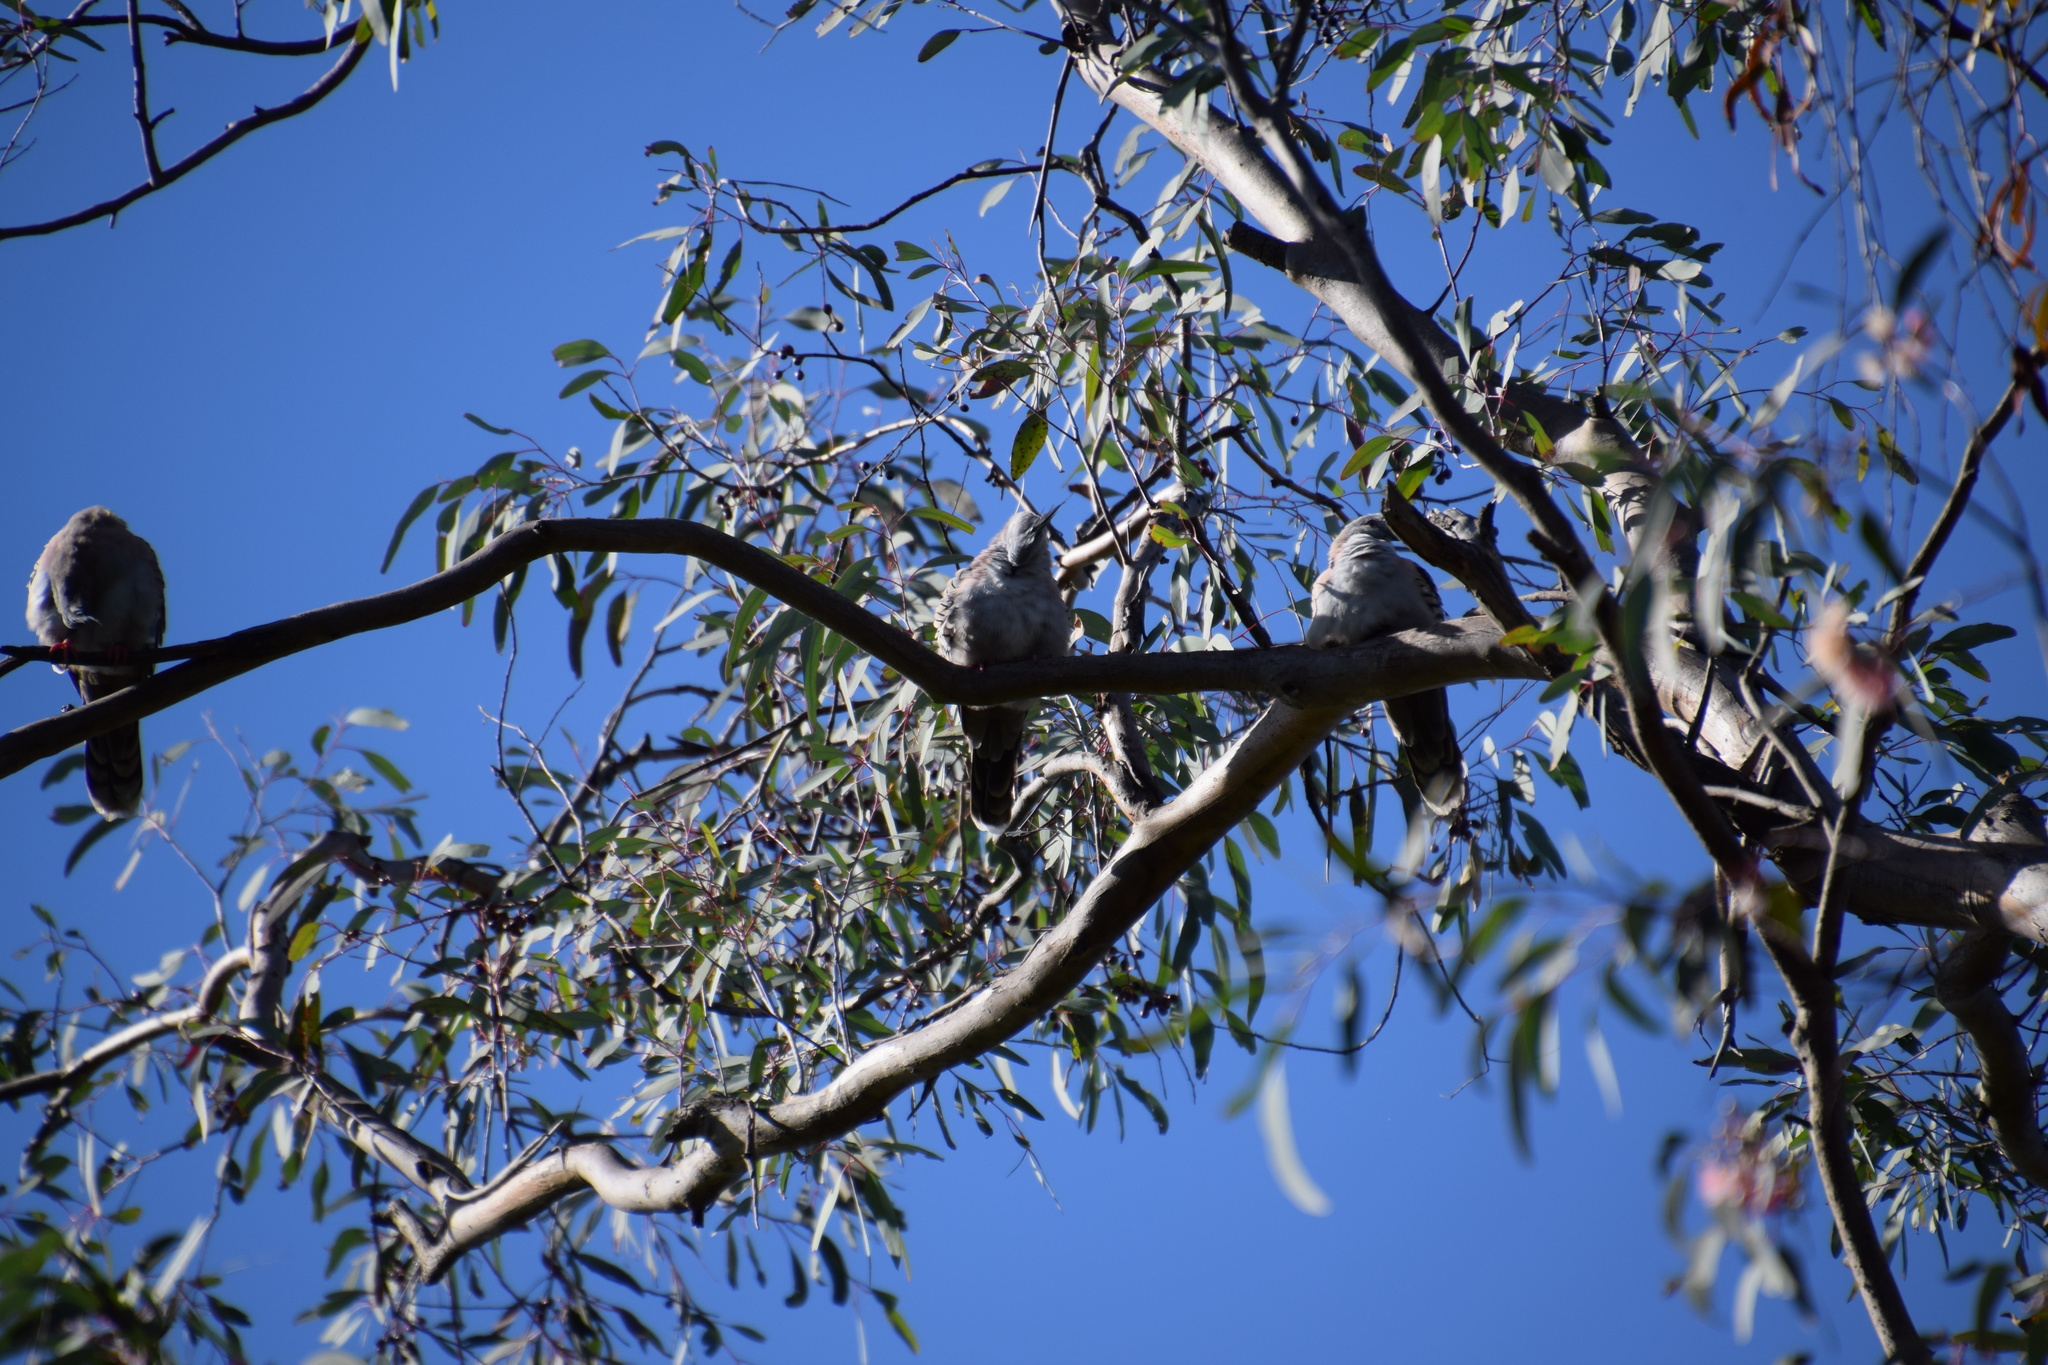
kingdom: Animalia
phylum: Chordata
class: Aves
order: Columbiformes
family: Columbidae
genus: Ocyphaps
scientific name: Ocyphaps lophotes
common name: Crested pigeon
